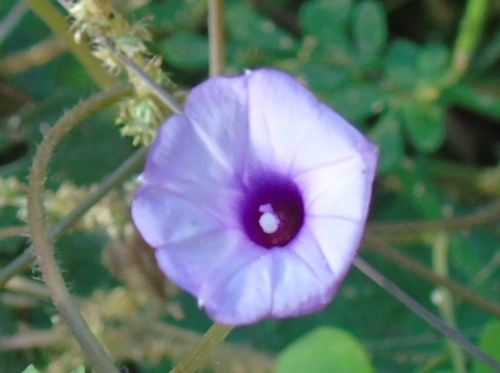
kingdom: Plantae
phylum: Tracheophyta
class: Magnoliopsida
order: Solanales
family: Convolvulaceae
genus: Ipomoea
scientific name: Ipomoea triloba
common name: Little-bell
